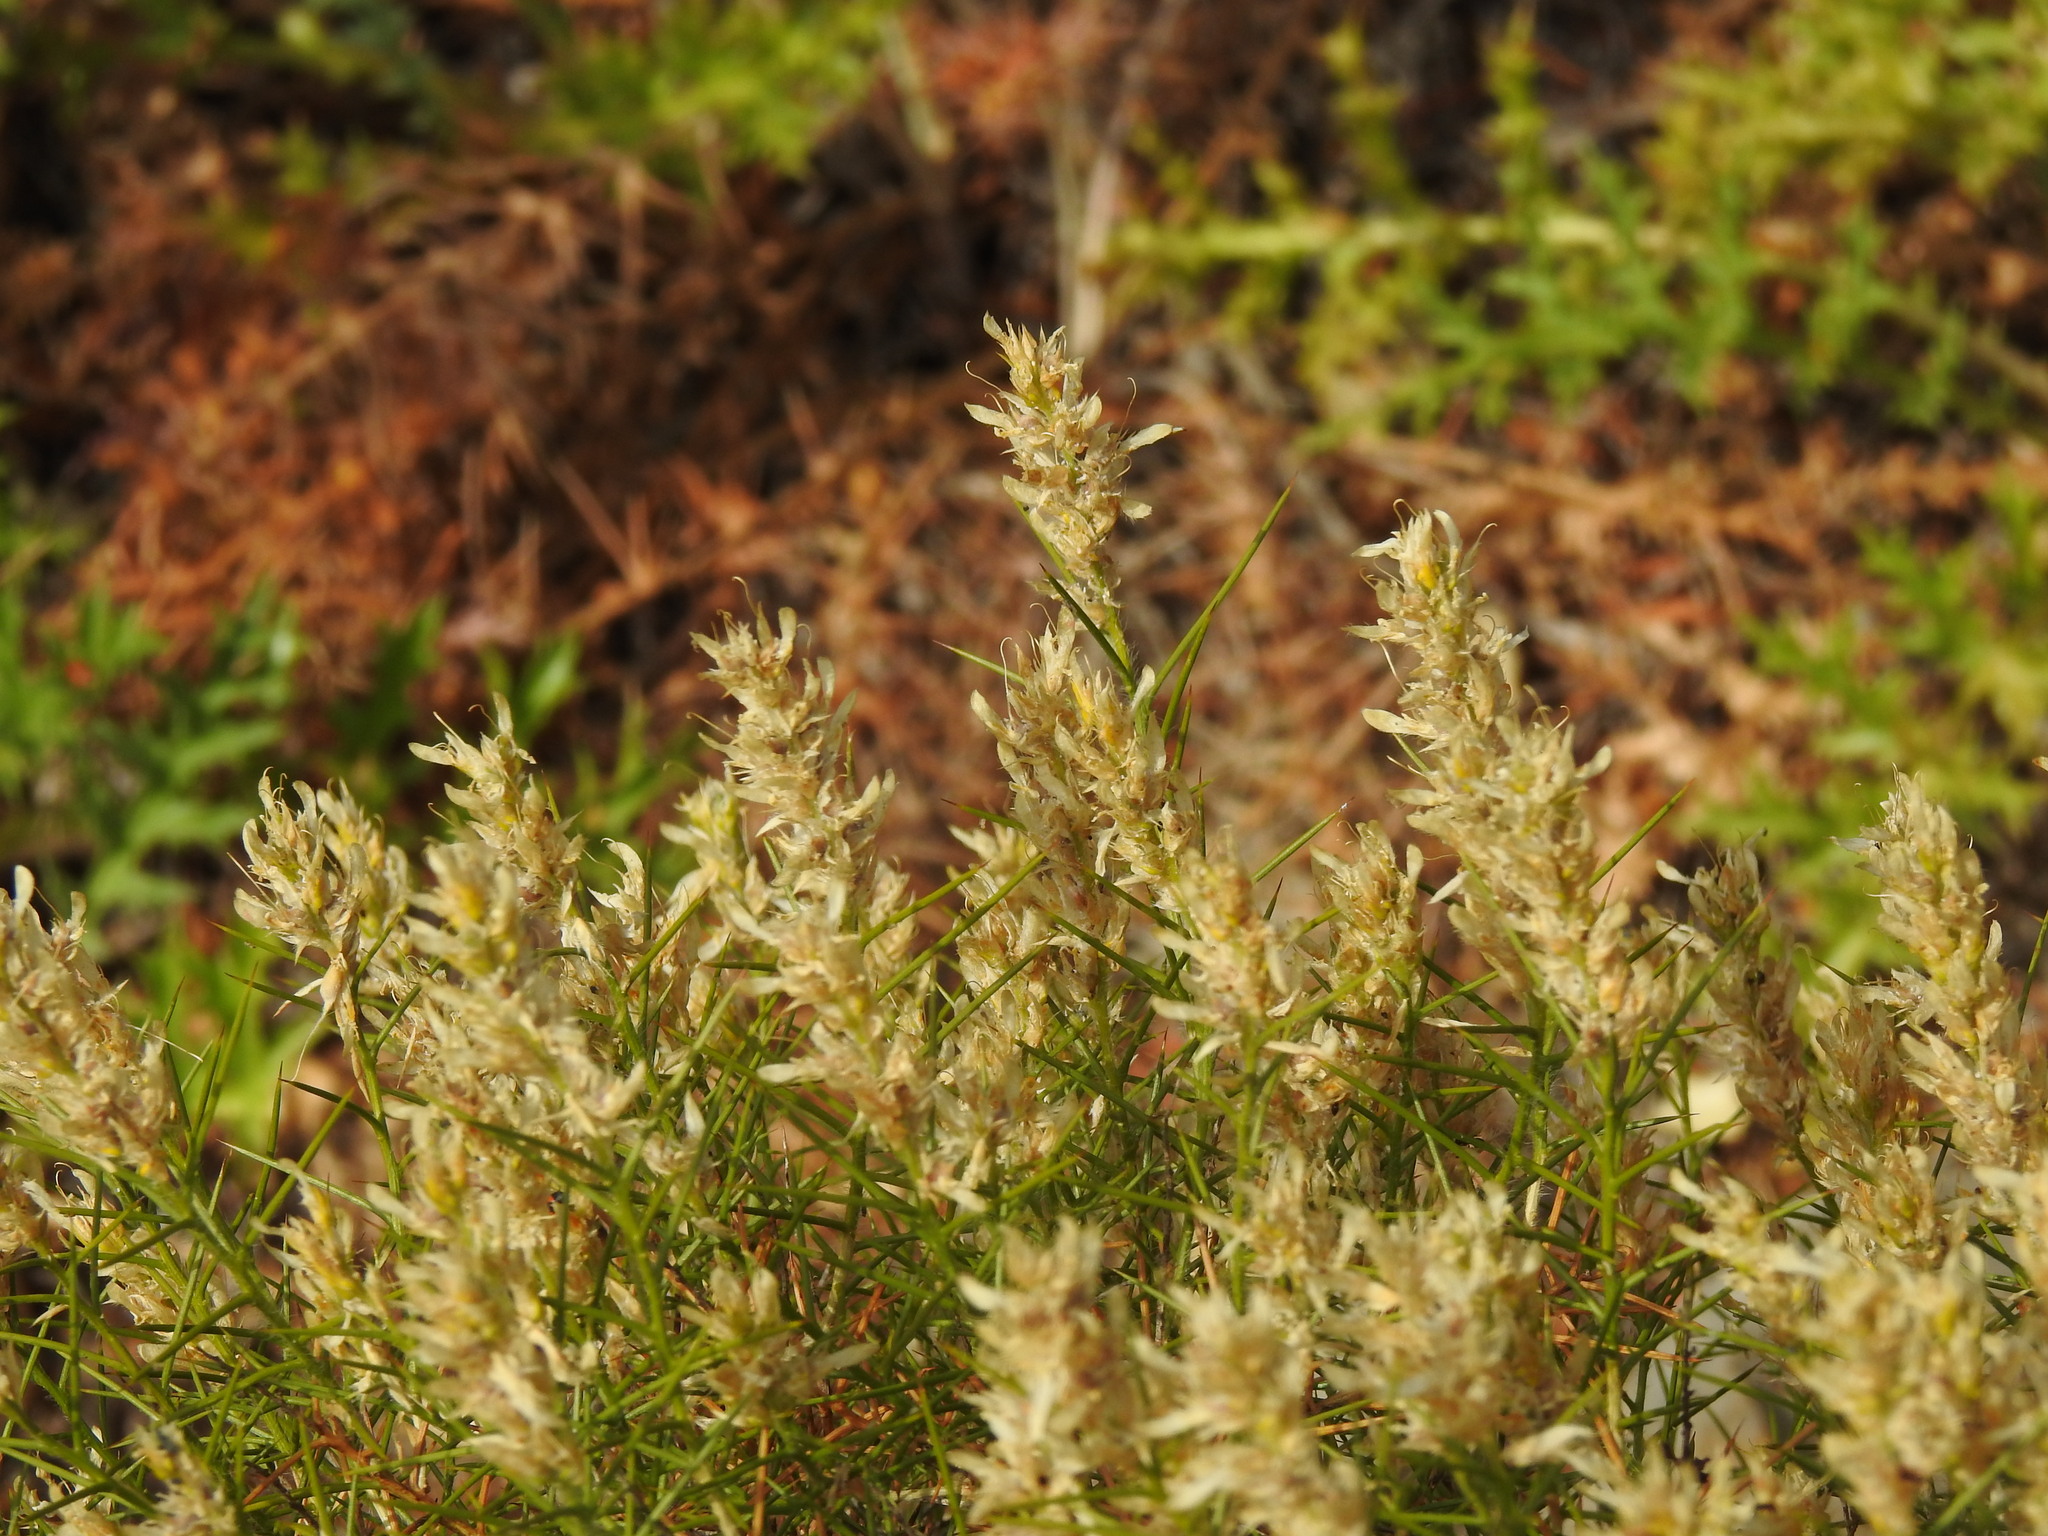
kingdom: Plantae
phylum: Tracheophyta
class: Magnoliopsida
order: Fabales
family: Fabaceae
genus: Genista
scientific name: Genista hirsuta
